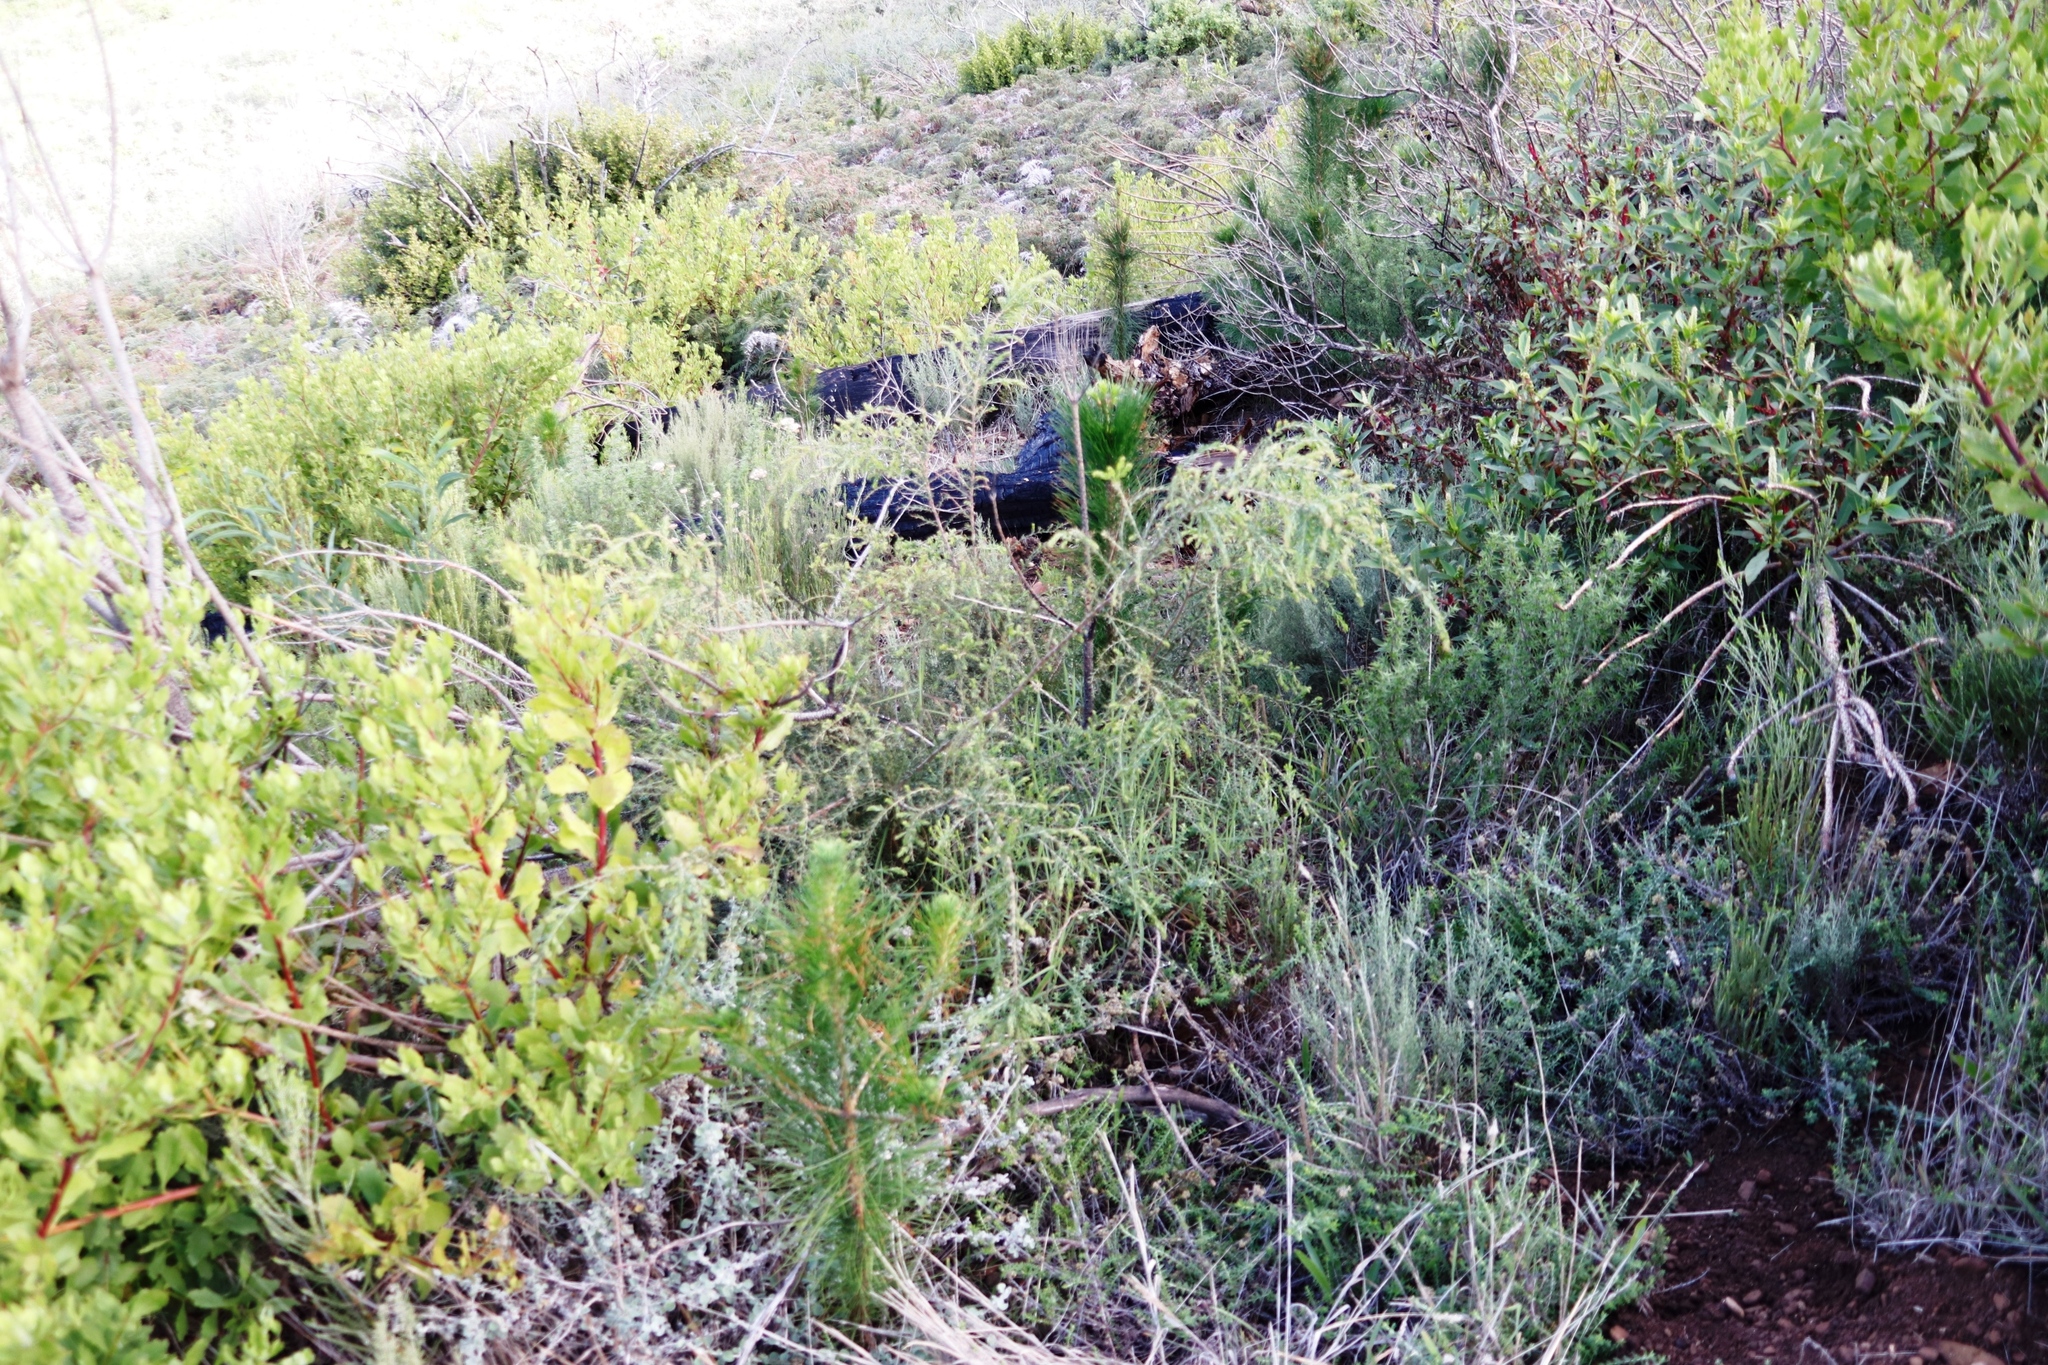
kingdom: Plantae
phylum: Tracheophyta
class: Magnoliopsida
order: Fabales
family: Fabaceae
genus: Acacia
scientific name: Acacia paradoxa
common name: Paradox acacia
